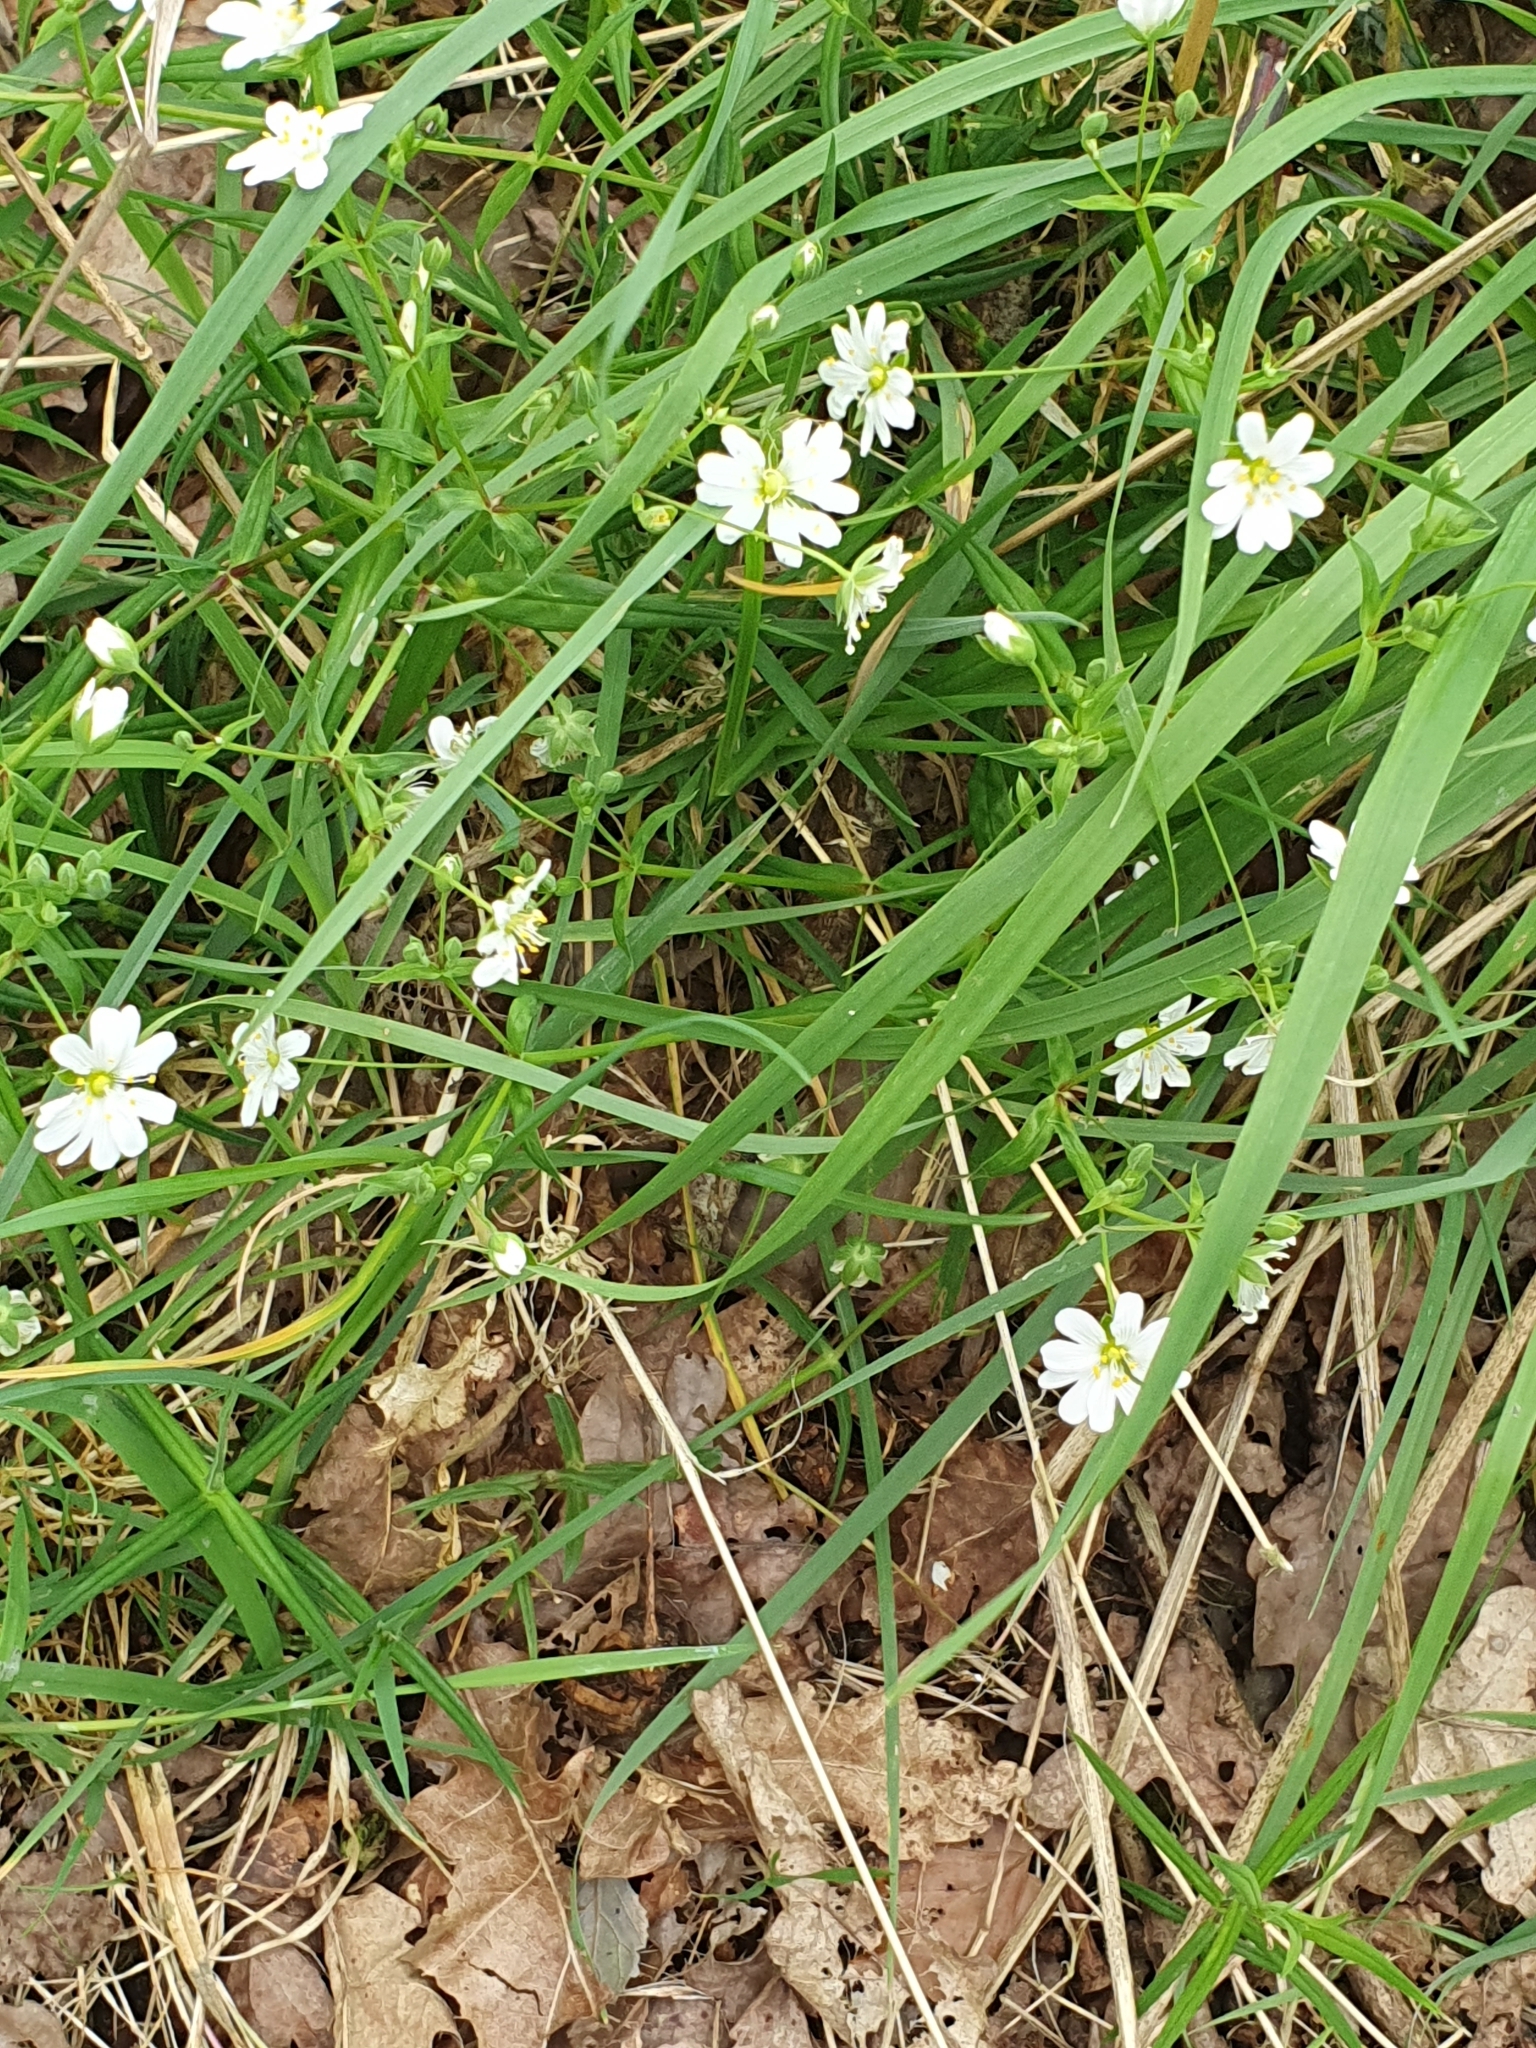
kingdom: Plantae
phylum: Tracheophyta
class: Magnoliopsida
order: Caryophyllales
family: Caryophyllaceae
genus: Rabelera
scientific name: Rabelera holostea
